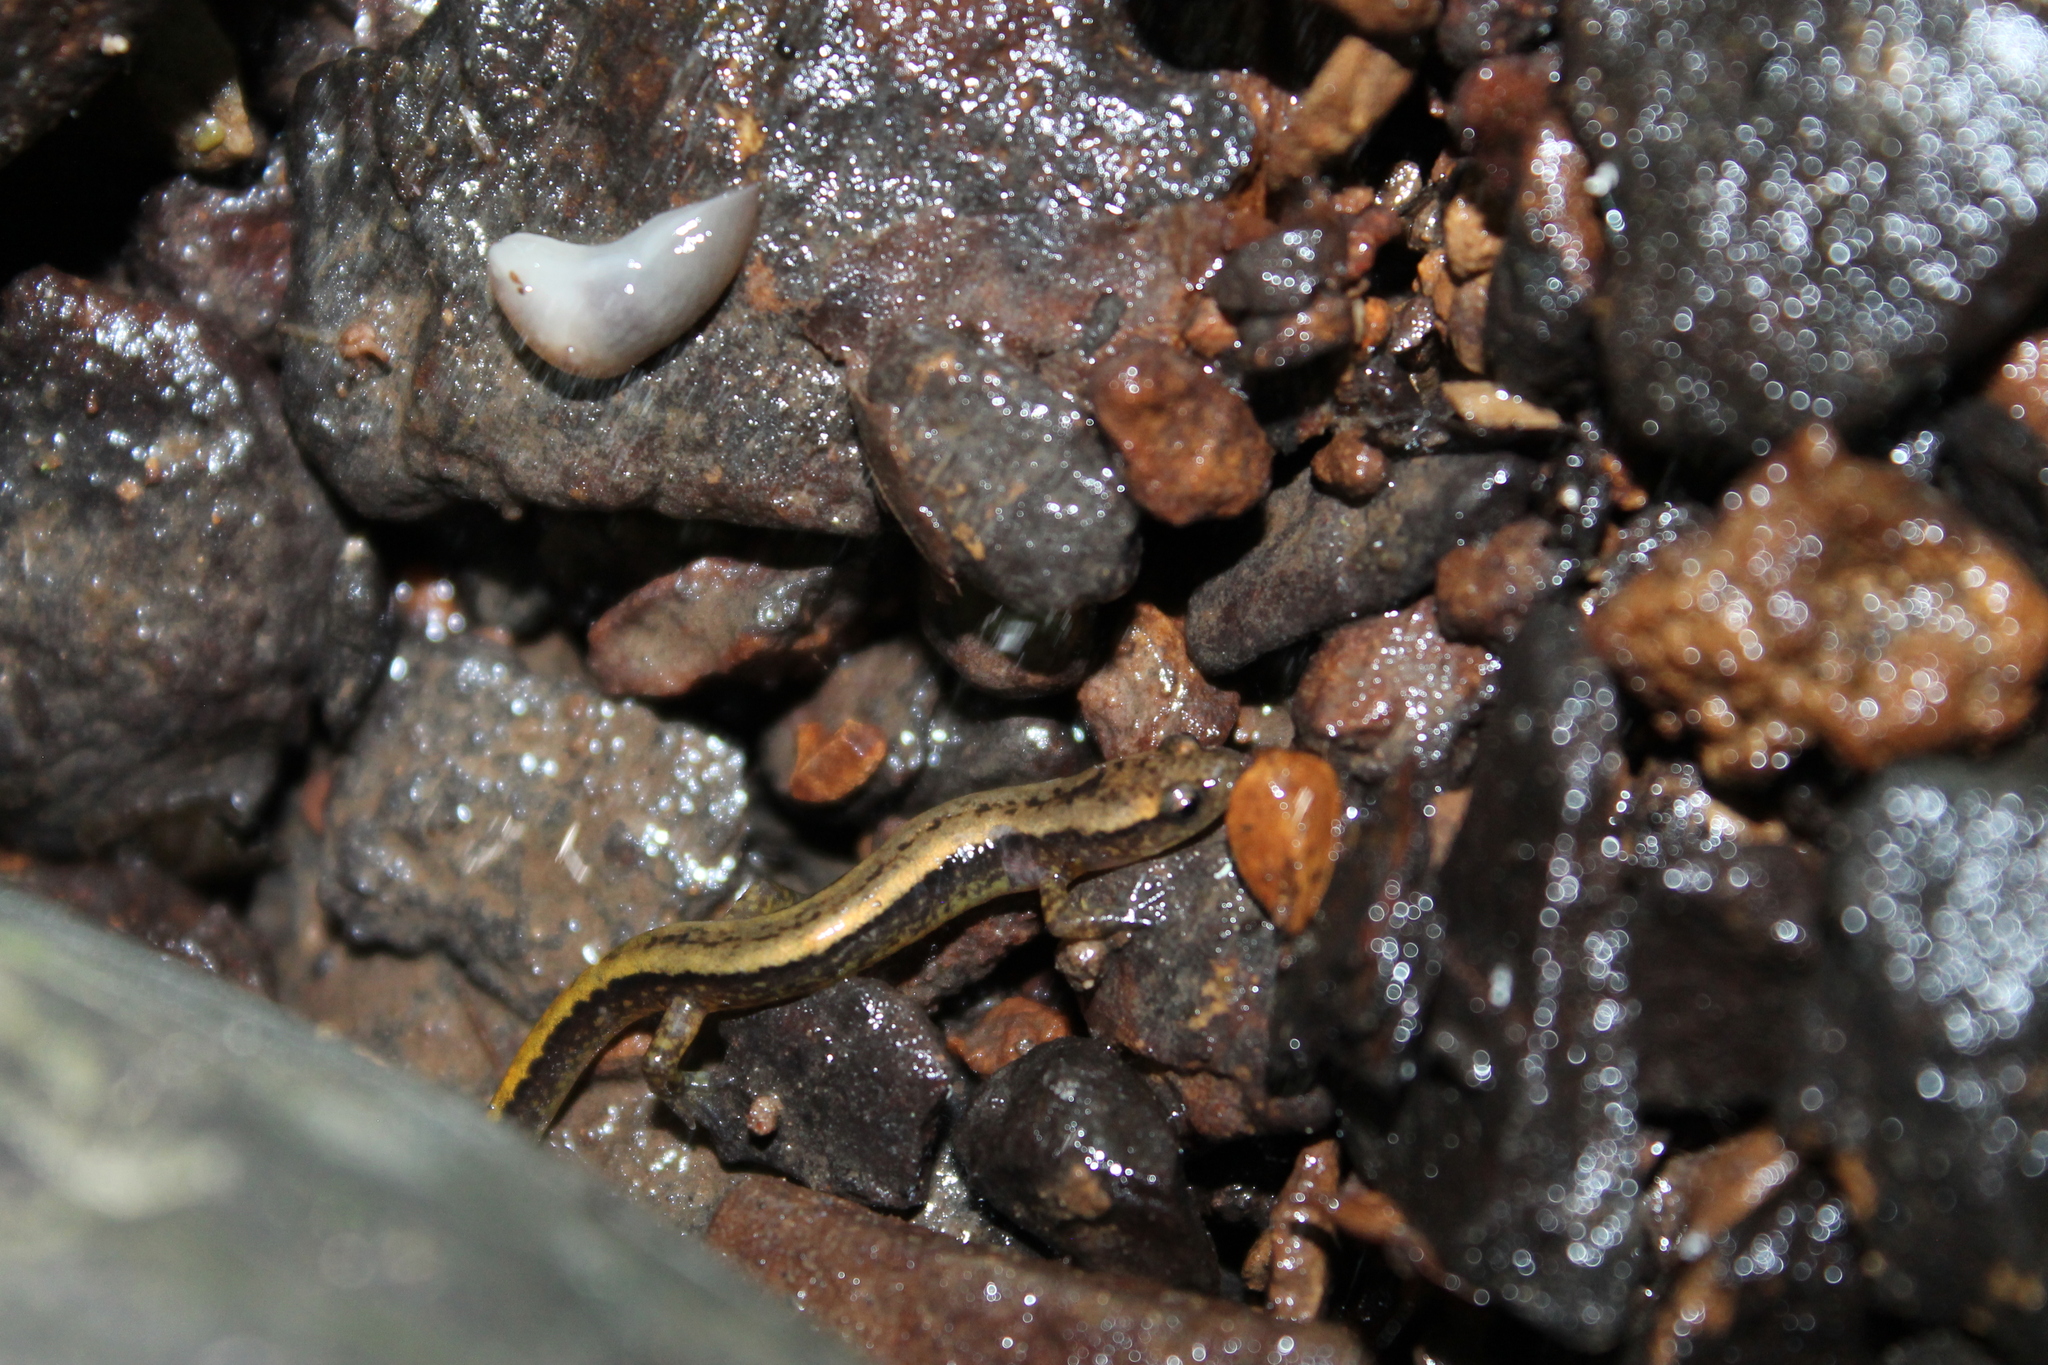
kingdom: Animalia
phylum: Chordata
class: Amphibia
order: Caudata
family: Plethodontidae
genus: Eurycea
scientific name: Eurycea cirrigera
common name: Southern two-lined salamander
